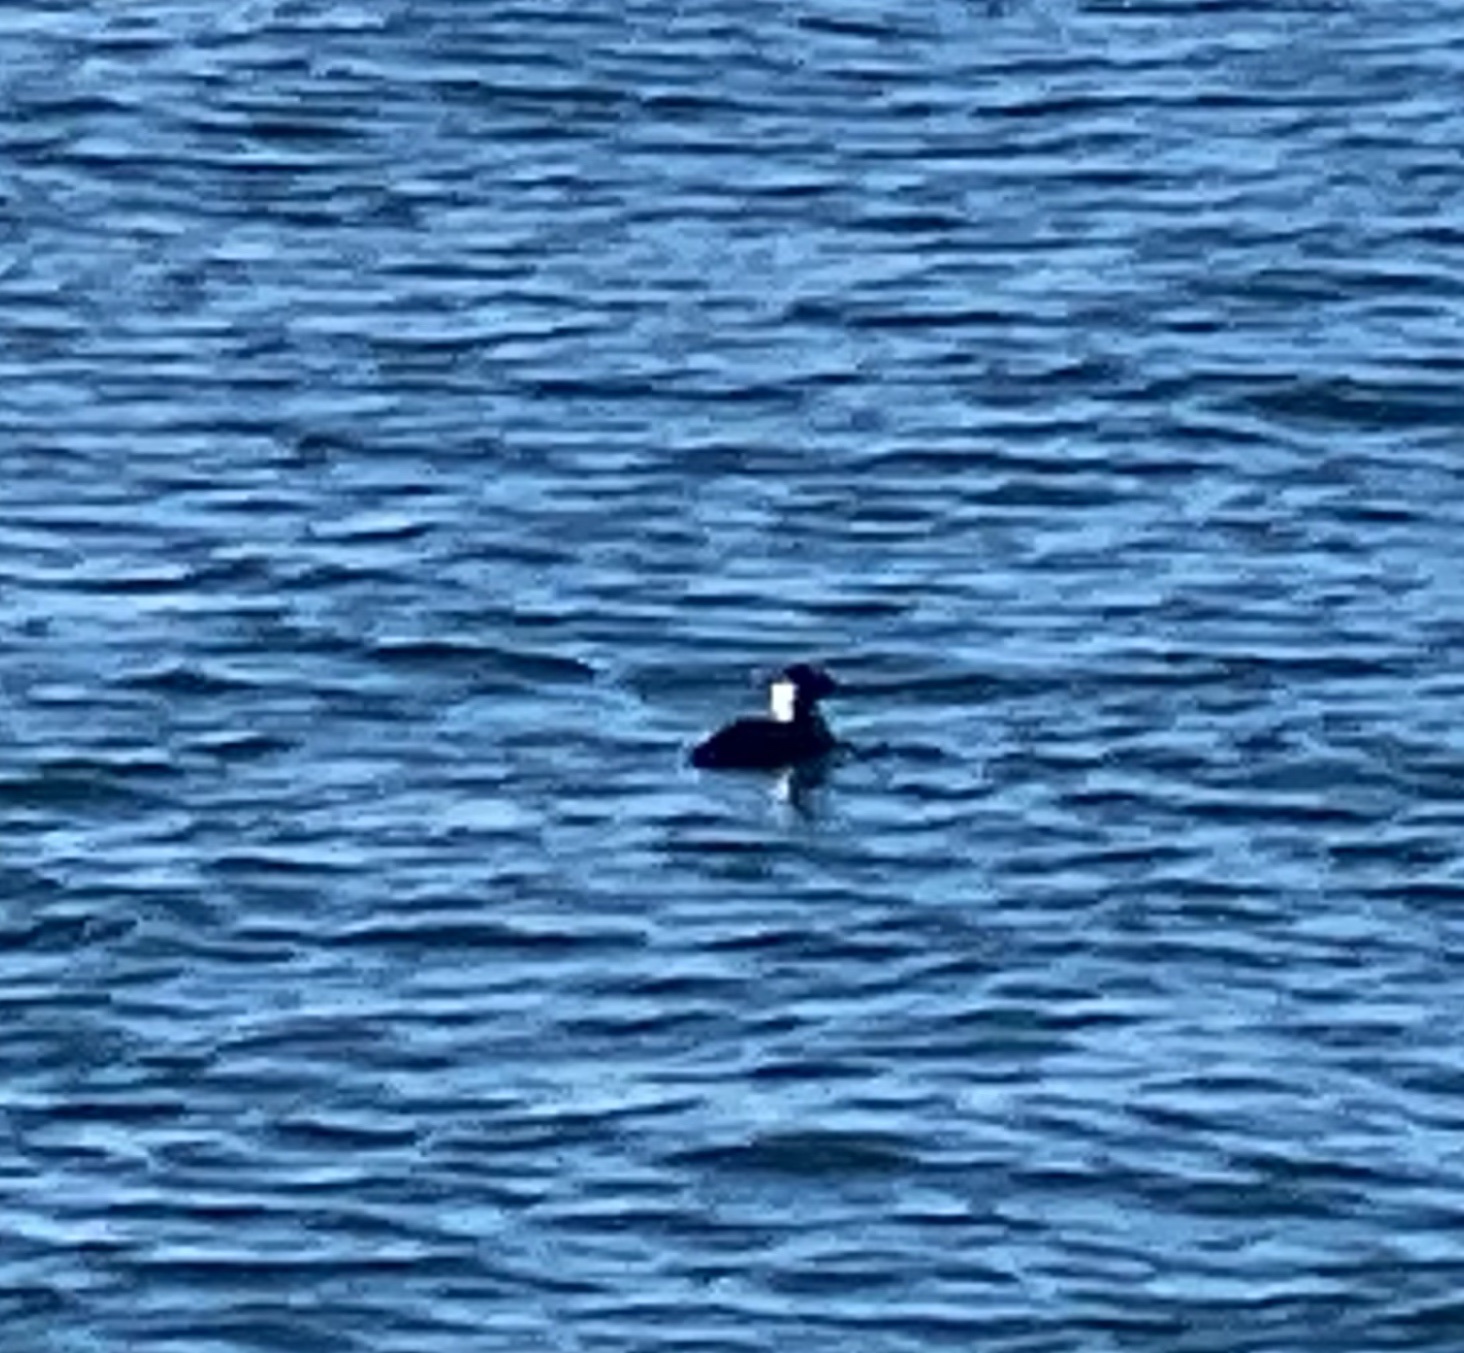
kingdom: Animalia
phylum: Chordata
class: Aves
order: Anseriformes
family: Anatidae
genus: Melanitta
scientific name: Melanitta perspicillata
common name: Surf scoter
